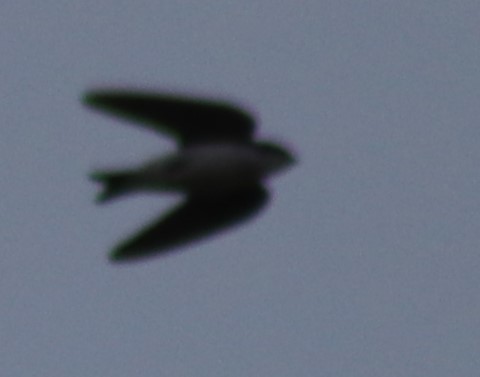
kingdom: Animalia
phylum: Chordata
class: Aves
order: Passeriformes
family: Hirundinidae
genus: Tachycineta
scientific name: Tachycineta bicolor
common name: Tree swallow
